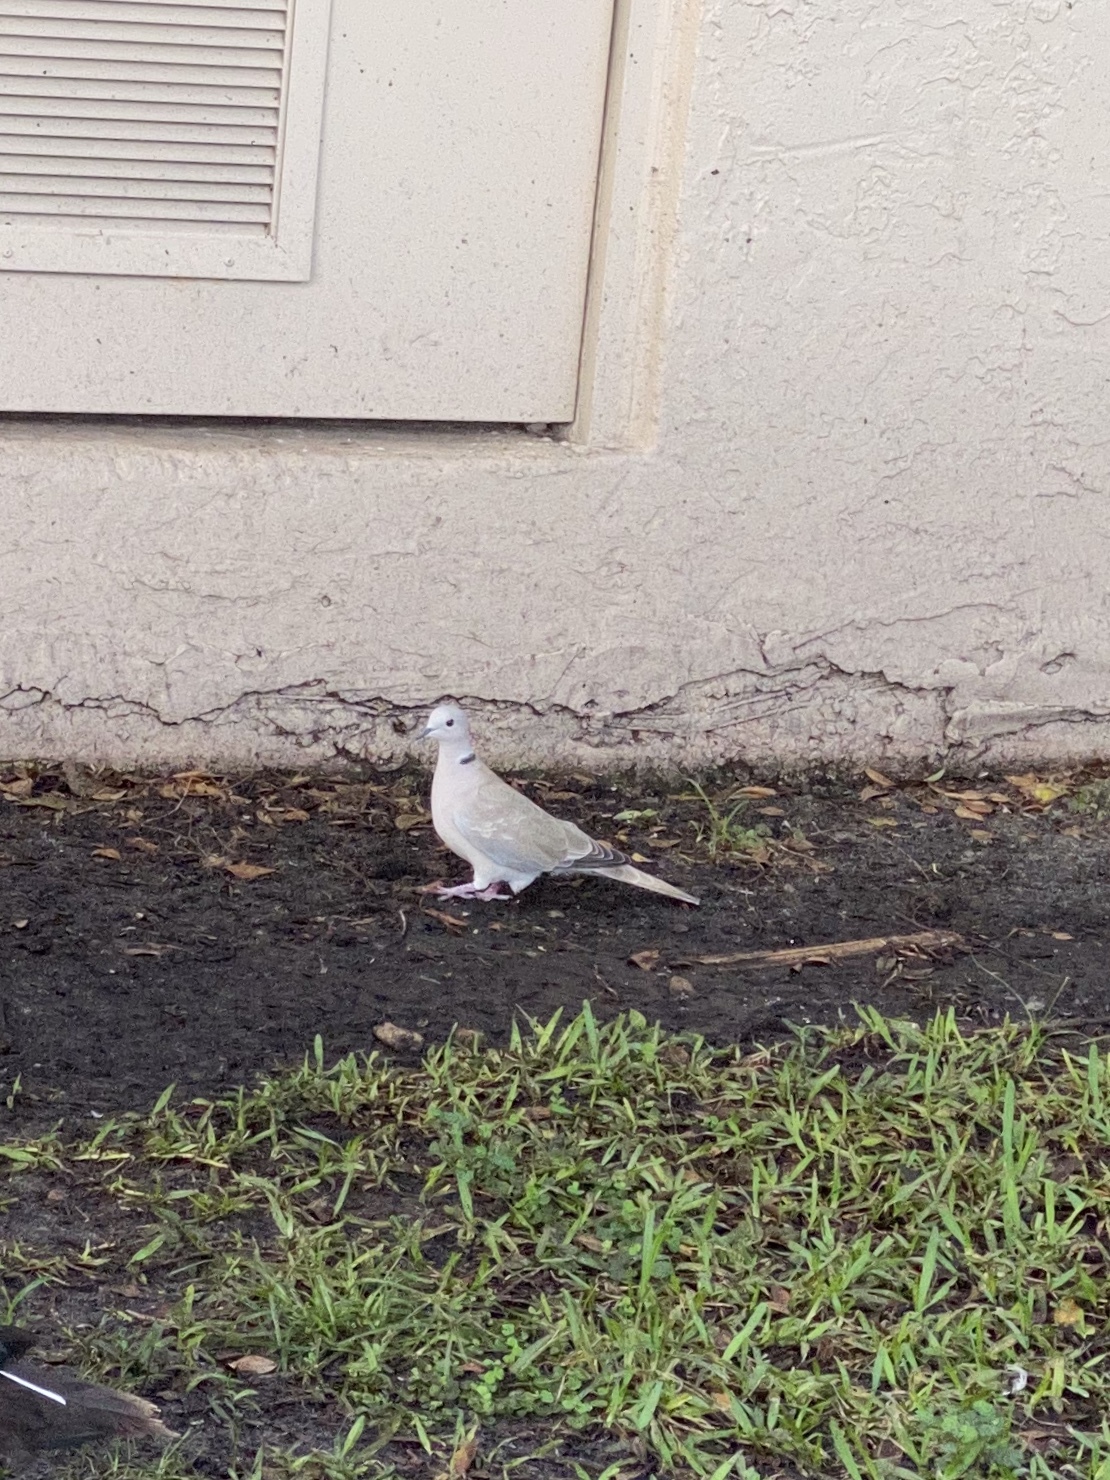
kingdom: Animalia
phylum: Chordata
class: Aves
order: Columbiformes
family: Columbidae
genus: Streptopelia
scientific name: Streptopelia decaocto
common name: Eurasian collared dove
